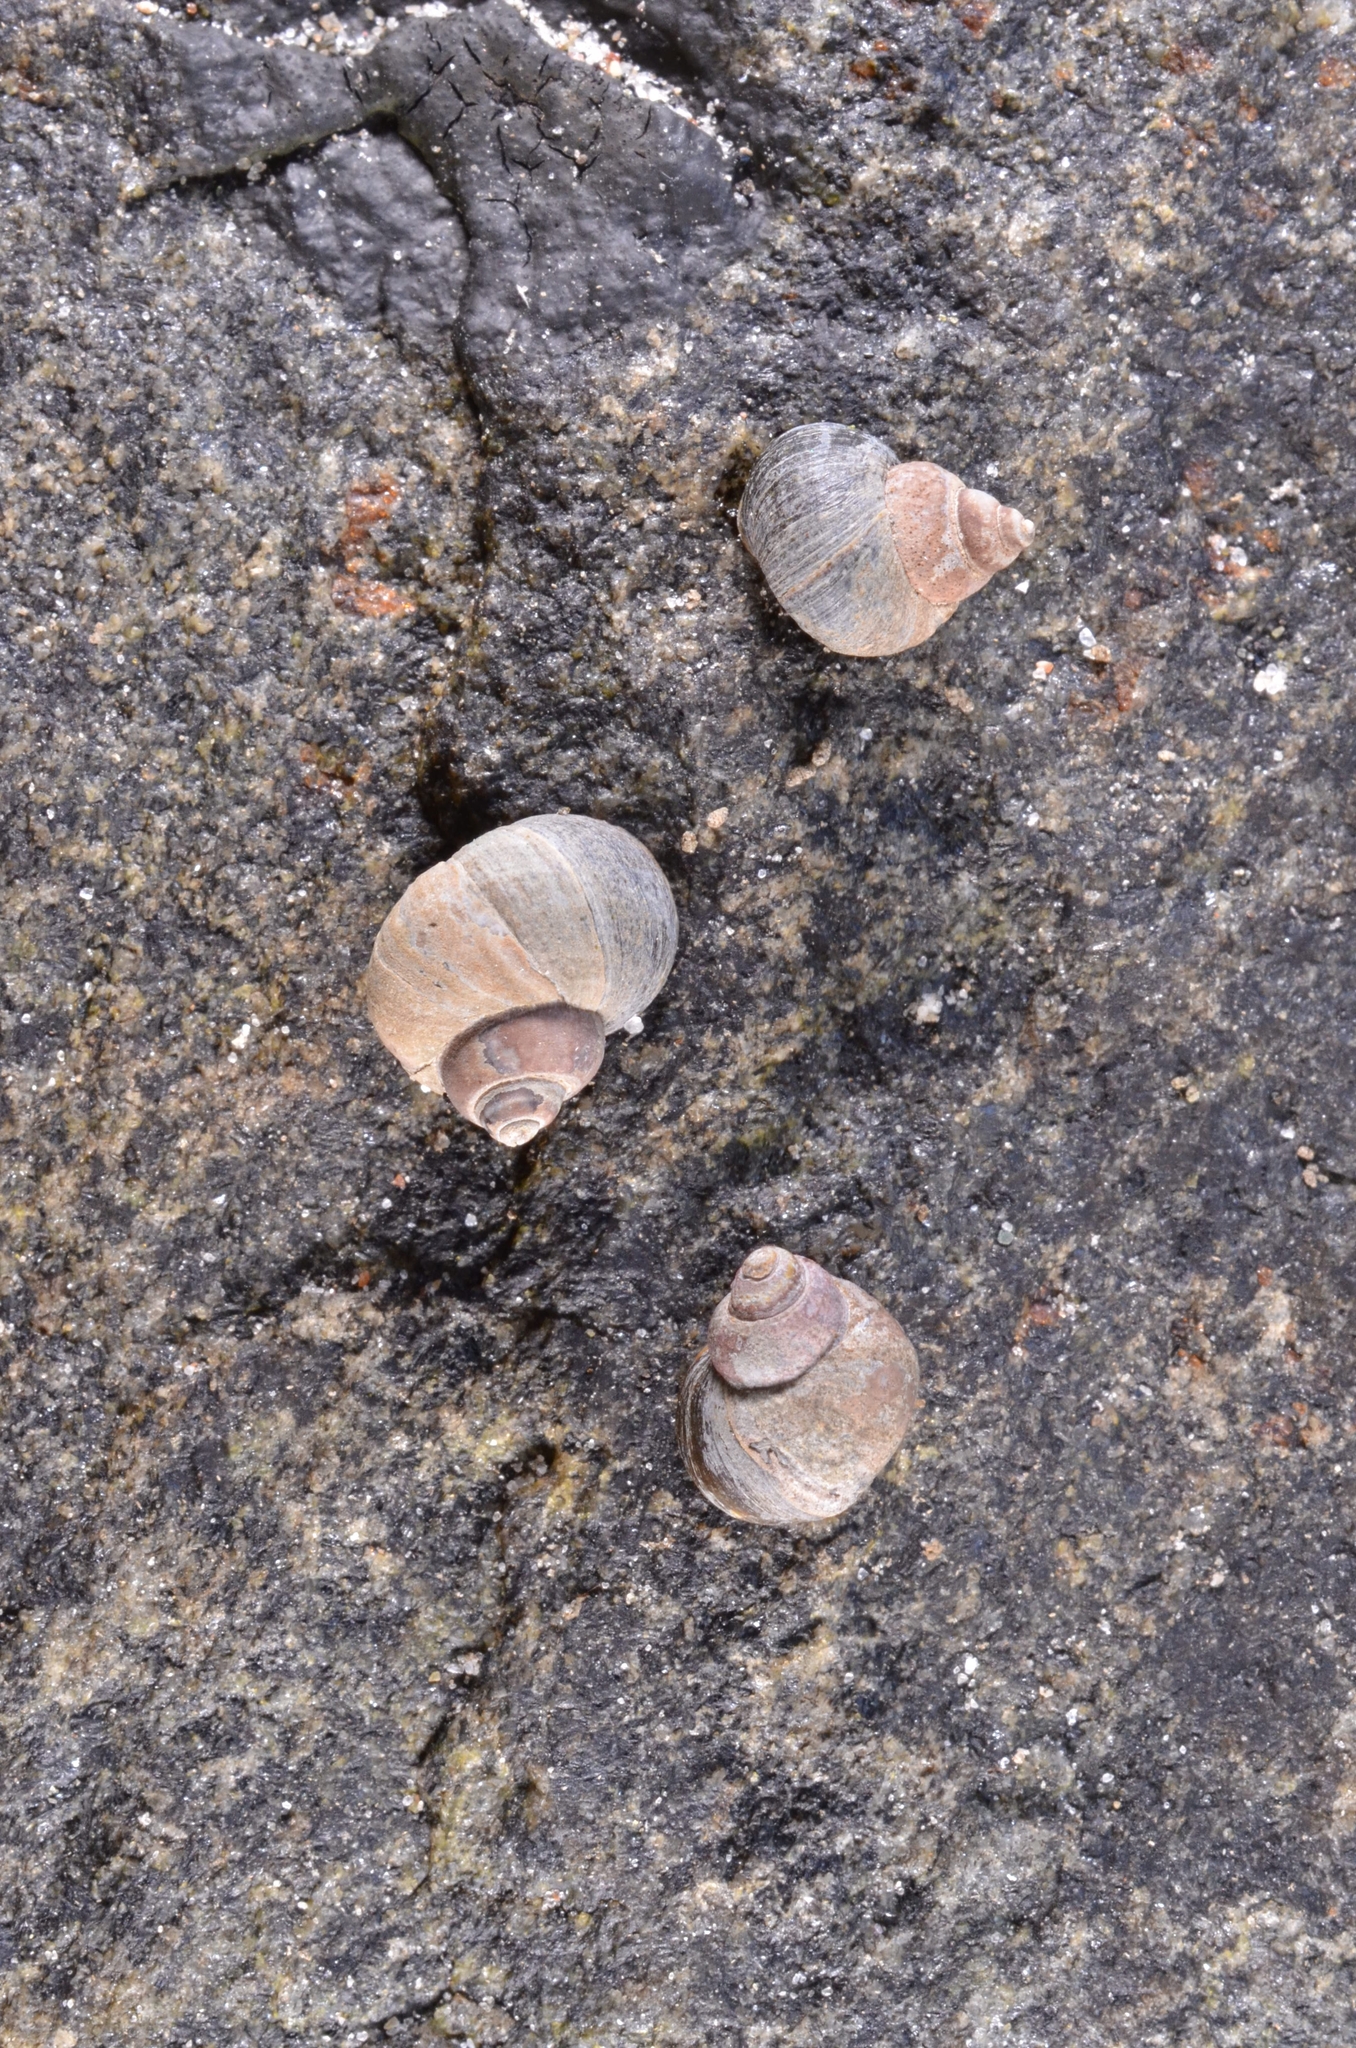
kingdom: Animalia
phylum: Mollusca
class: Gastropoda
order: Littorinimorpha
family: Littorinidae
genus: Littorina
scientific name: Littorina saxatilis
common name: Black-lined periwinkle
